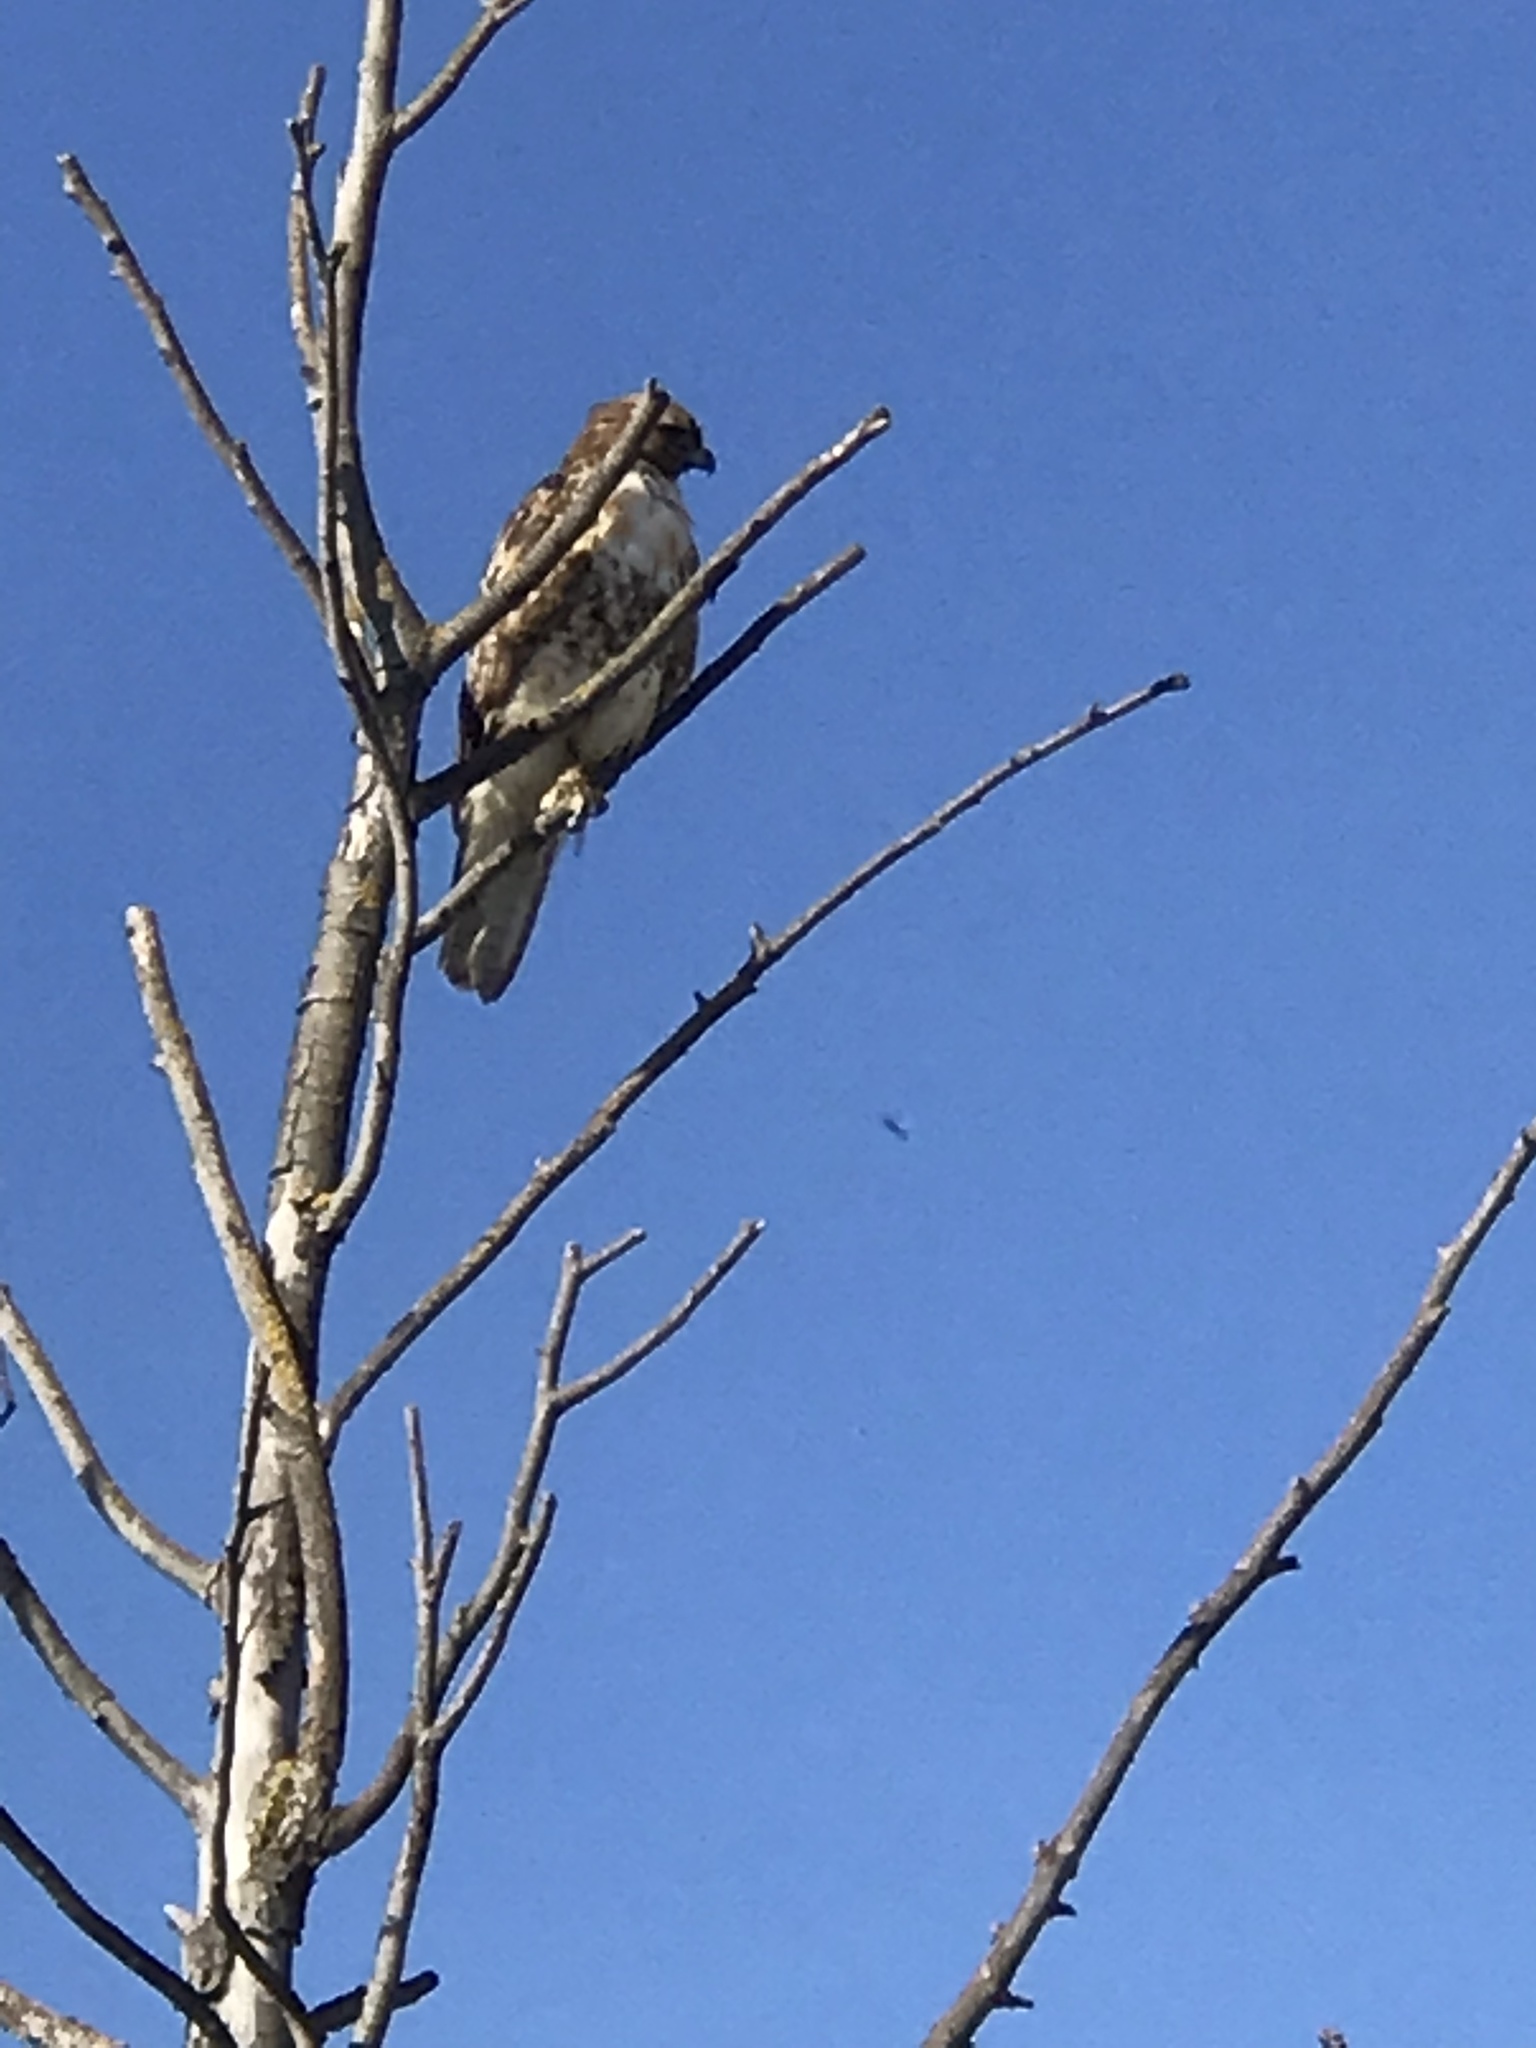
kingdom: Animalia
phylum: Chordata
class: Aves
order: Accipitriformes
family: Accipitridae
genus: Buteo
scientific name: Buteo jamaicensis
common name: Red-tailed hawk
